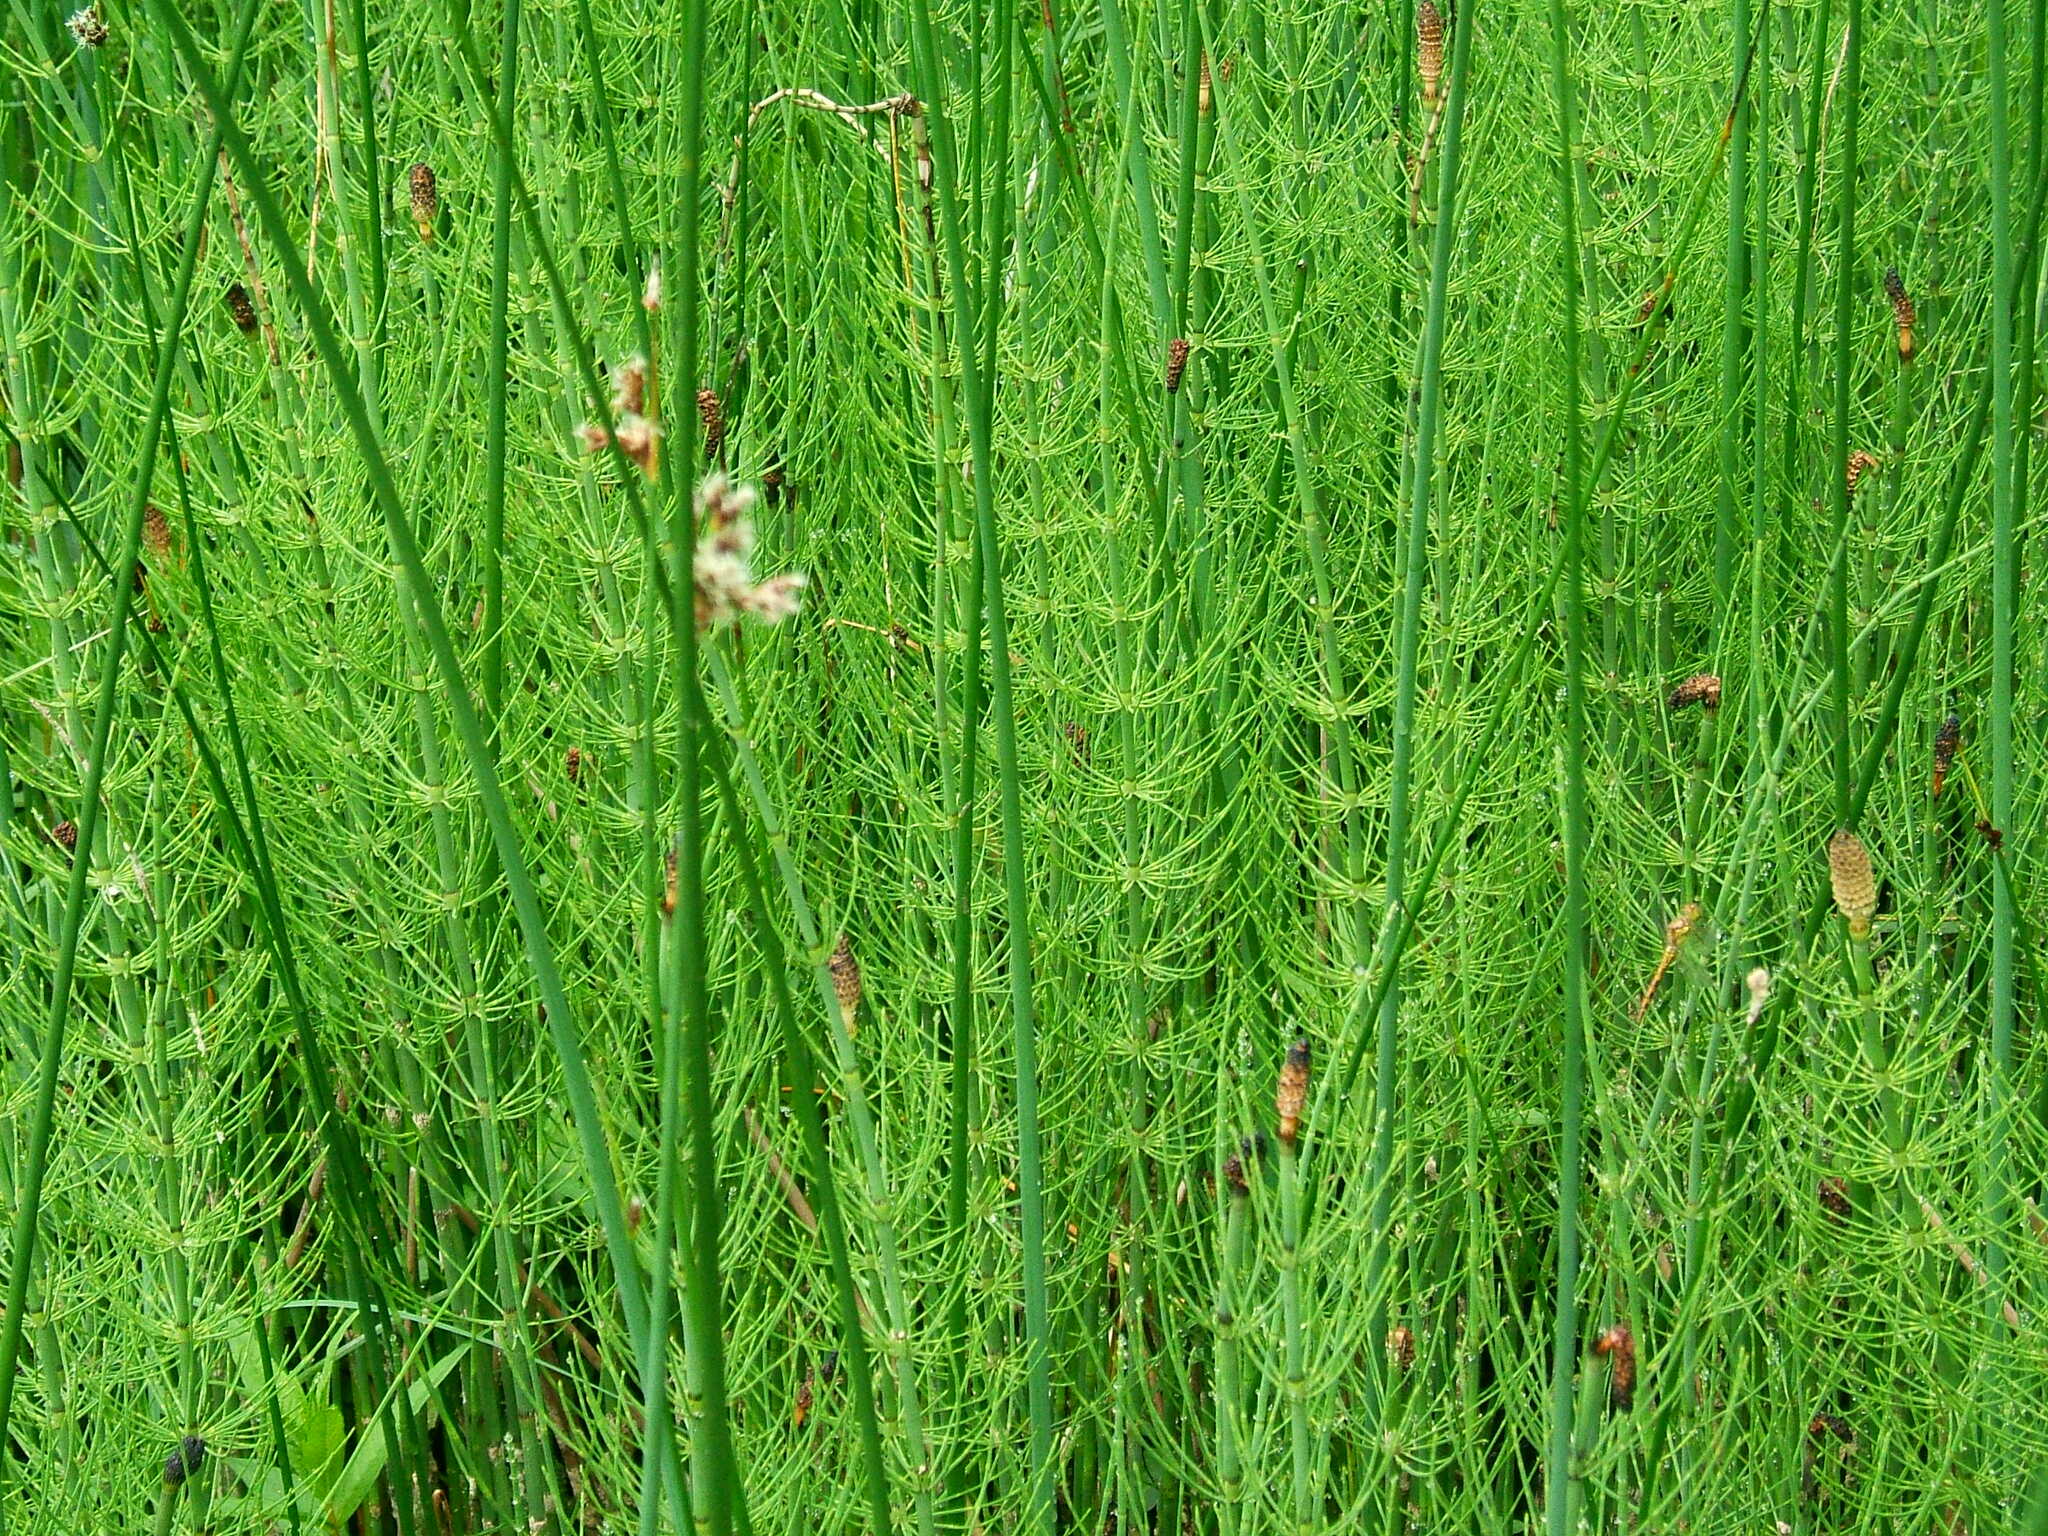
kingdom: Plantae
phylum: Tracheophyta
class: Polypodiopsida
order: Equisetales
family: Equisetaceae
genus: Equisetum
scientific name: Equisetum fluviatile
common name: Water horsetail
